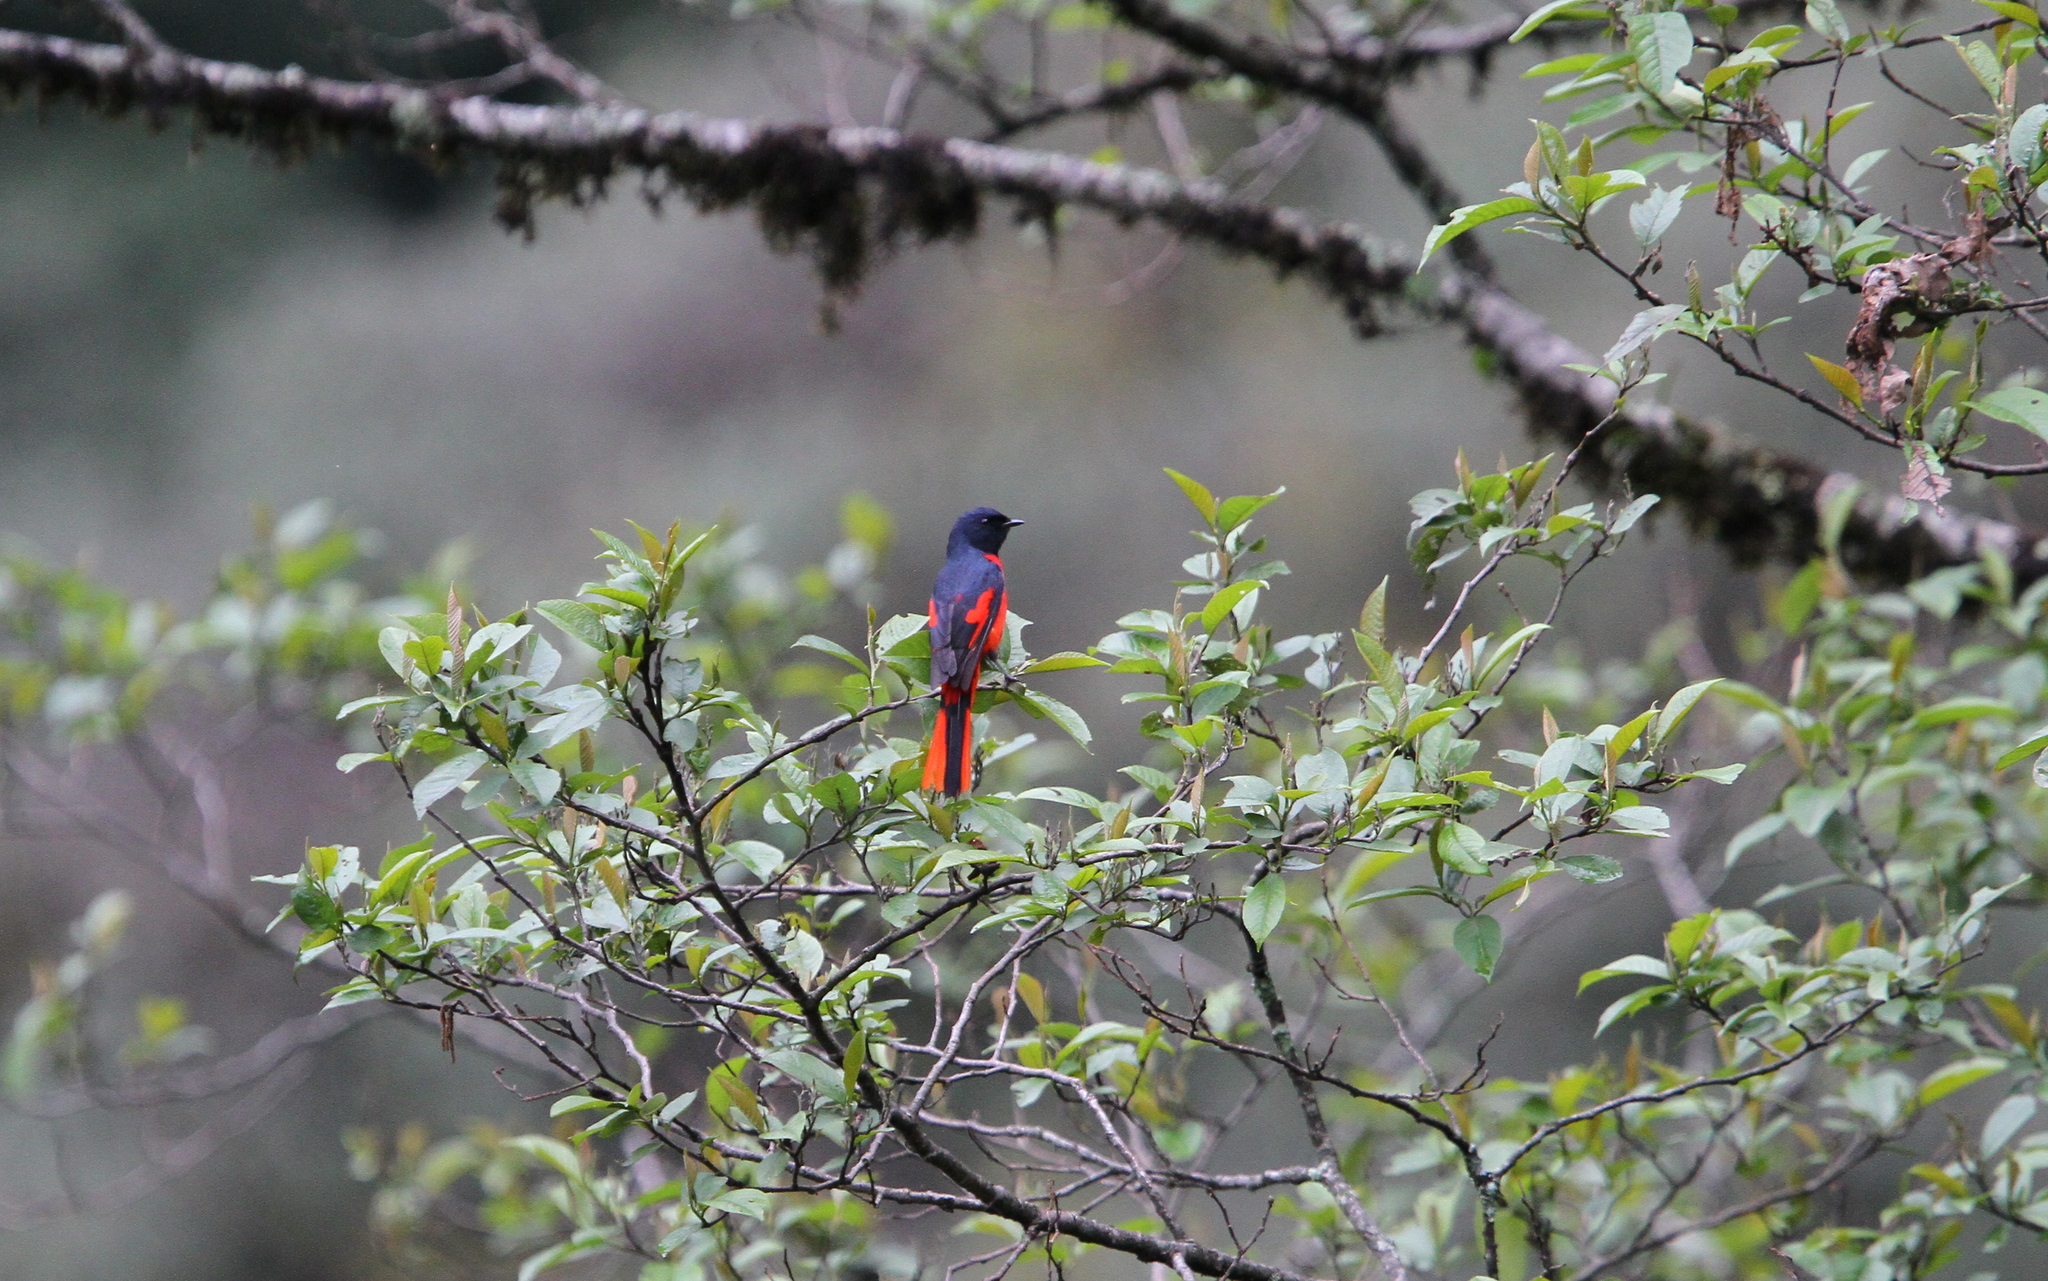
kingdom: Animalia
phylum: Chordata
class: Aves
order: Passeriformes
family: Campephagidae
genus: Pericrocotus
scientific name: Pericrocotus brevirostris
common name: Short-billed minivet
